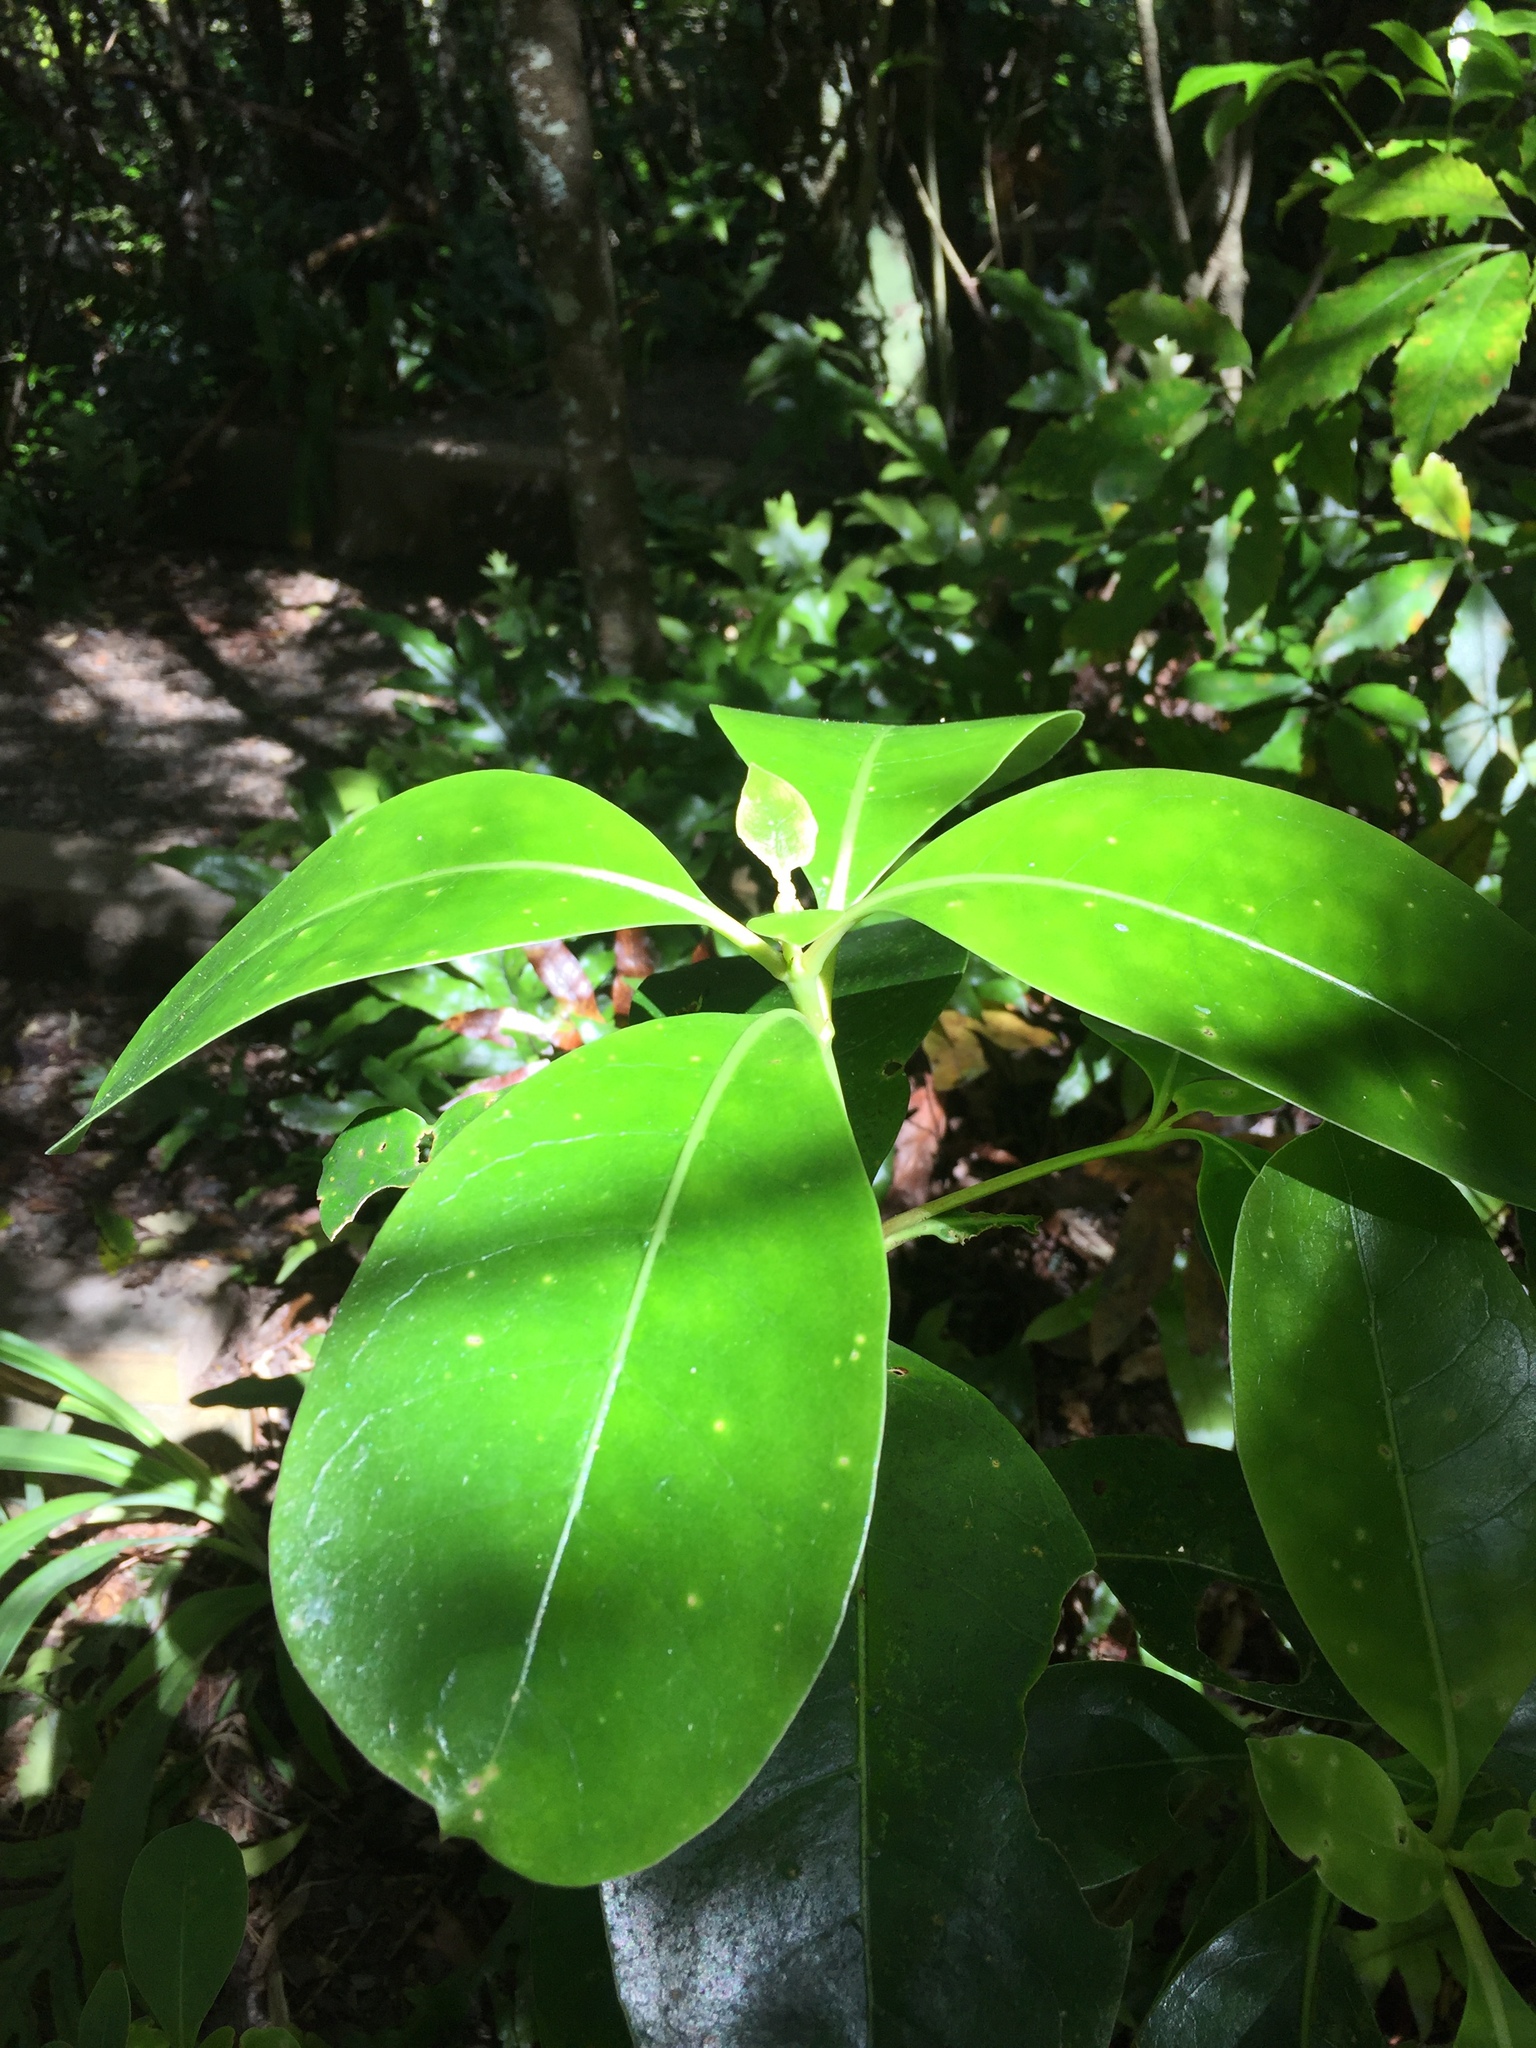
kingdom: Plantae
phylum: Tracheophyta
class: Magnoliopsida
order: Gentianales
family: Rubiaceae
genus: Coprosma
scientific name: Coprosma lucida
